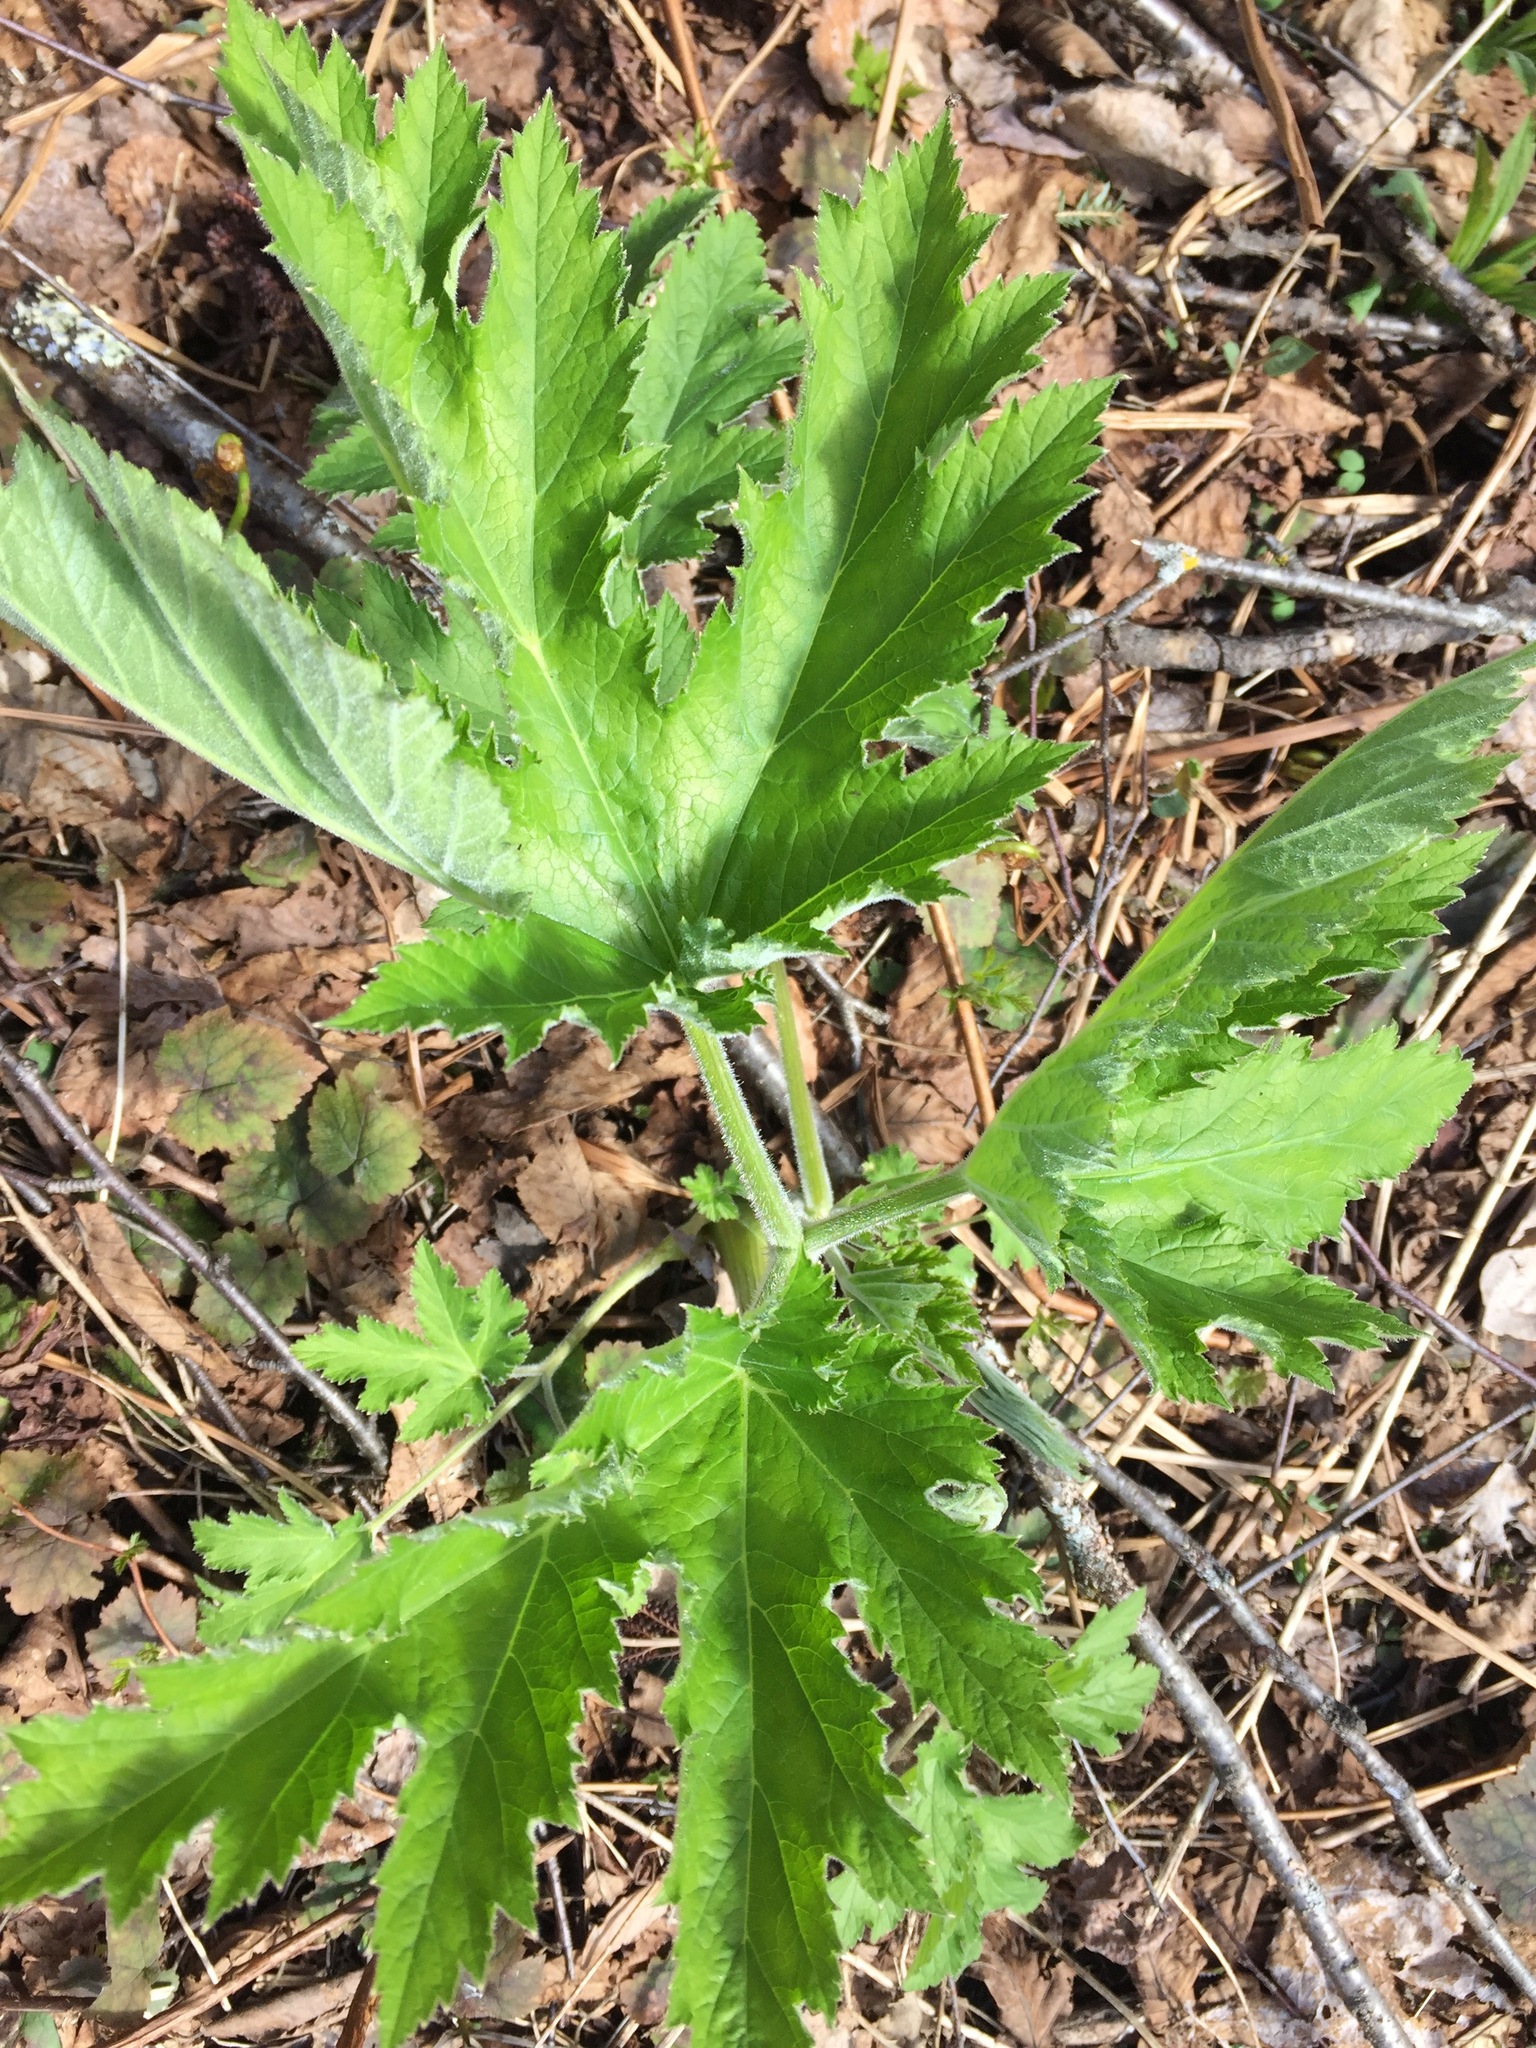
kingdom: Plantae
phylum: Tracheophyta
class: Magnoliopsida
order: Apiales
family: Apiaceae
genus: Heracleum
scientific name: Heracleum maximum
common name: American cow parsnip
